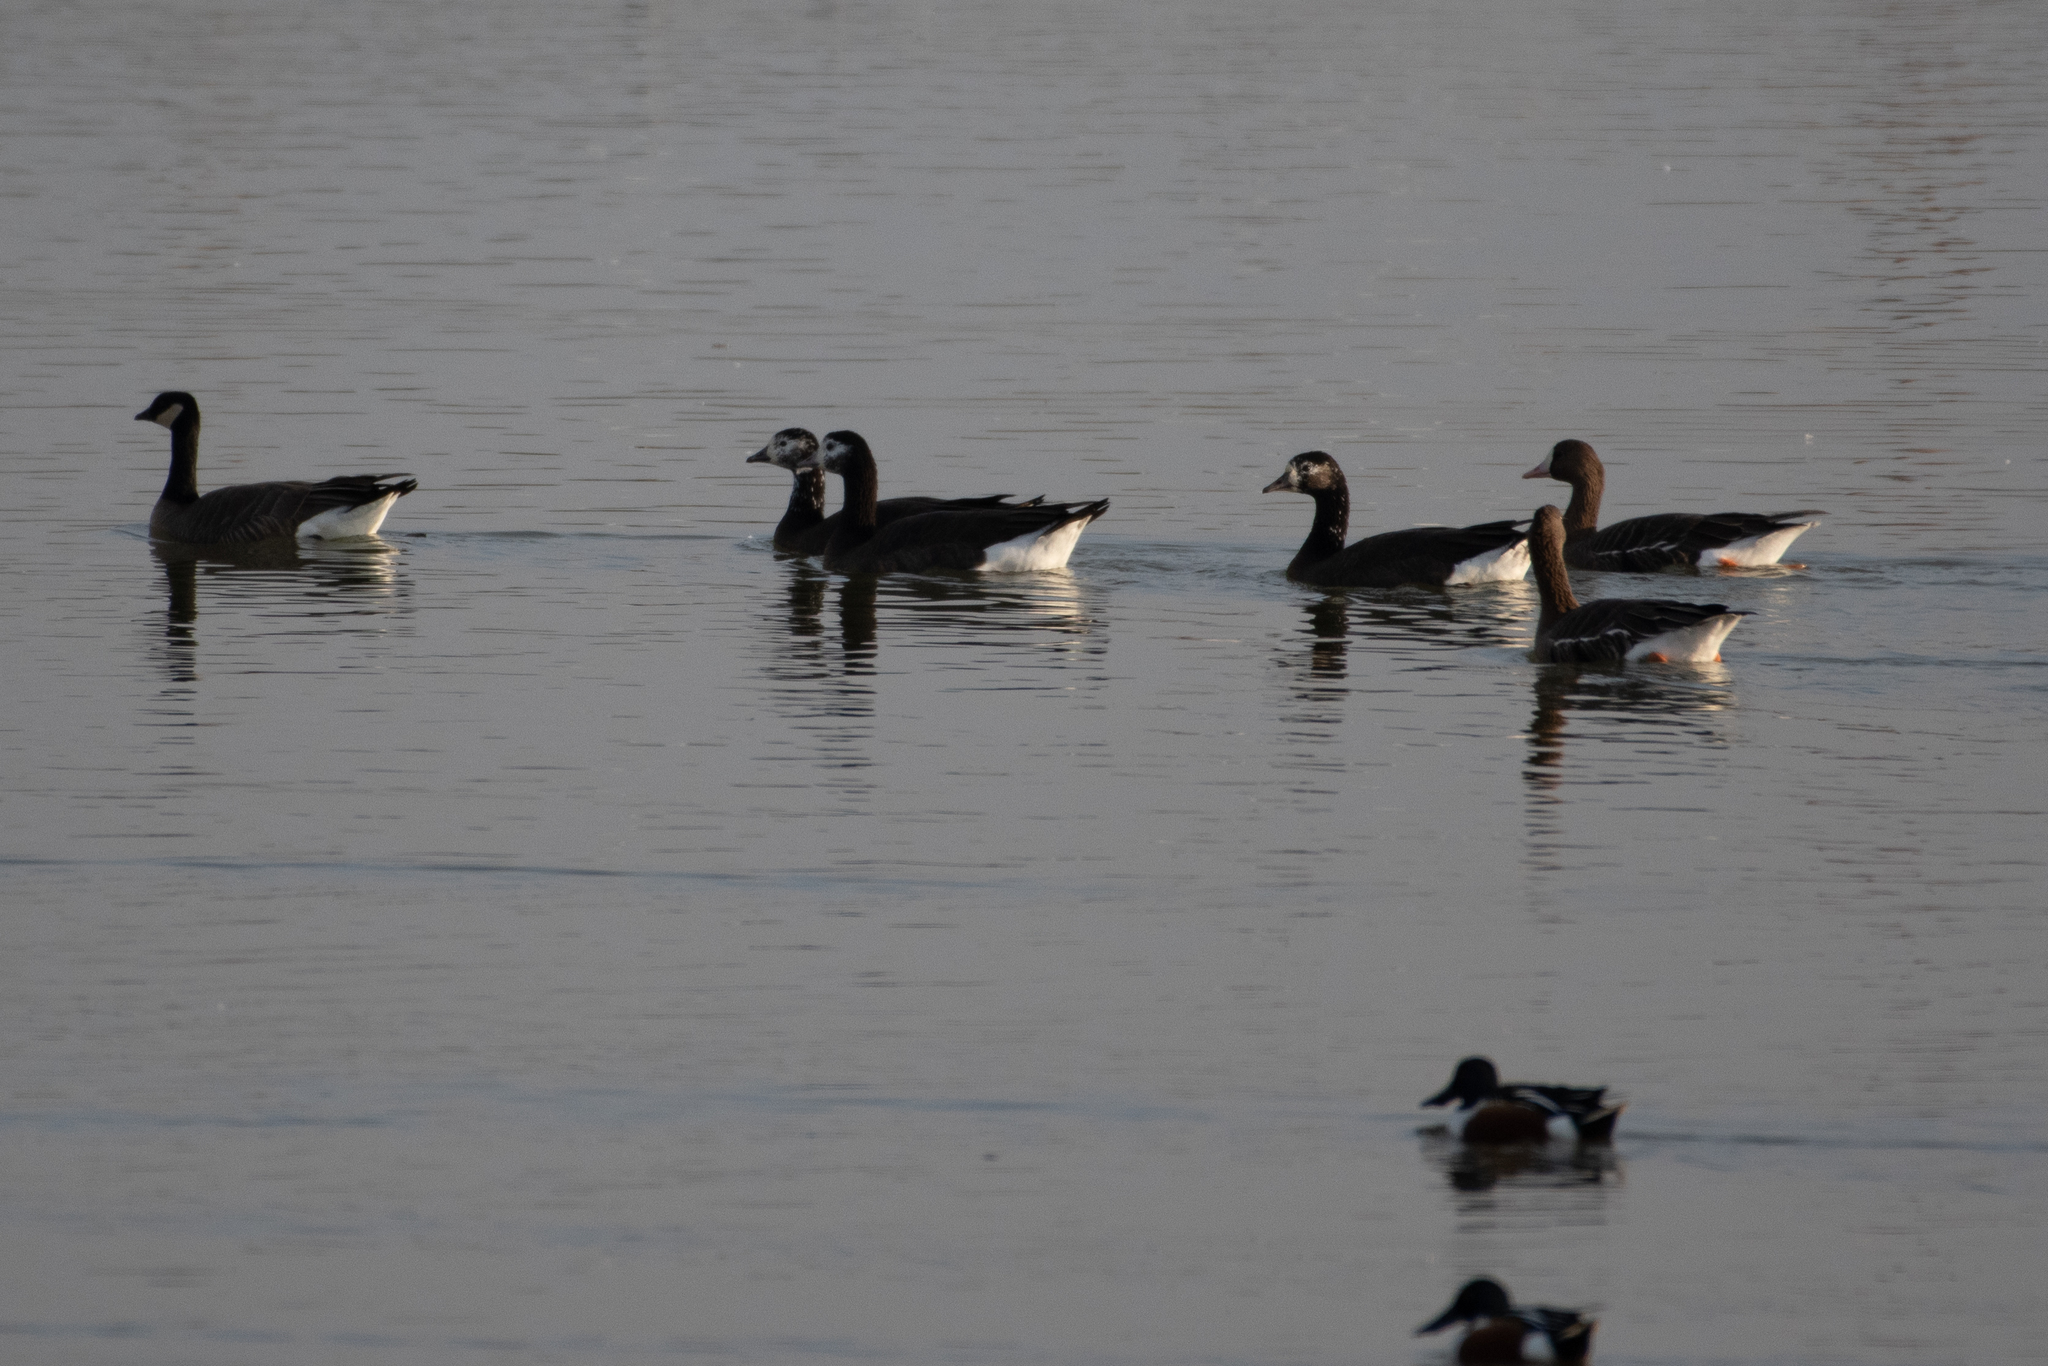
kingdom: Animalia
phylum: Chordata
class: Aves
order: Anseriformes
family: Anatidae
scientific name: Anatidae
